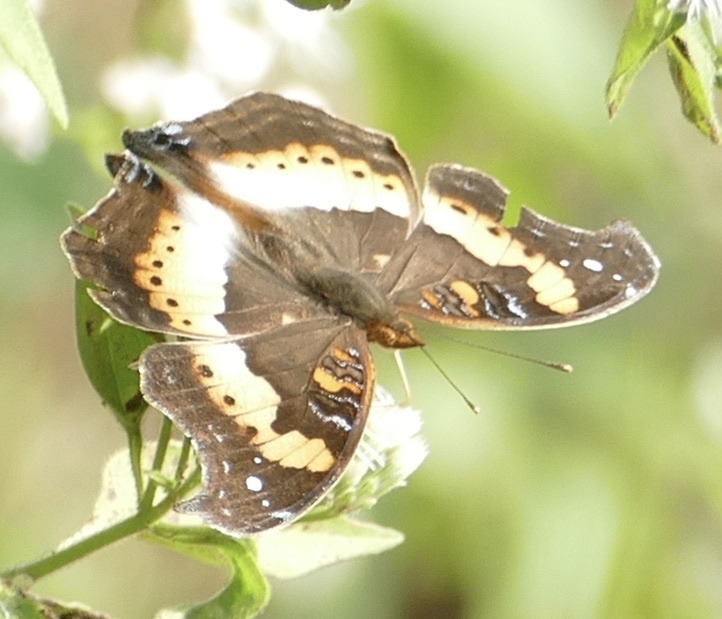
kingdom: Animalia
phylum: Arthropoda
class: Insecta
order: Lepidoptera
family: Nymphalidae
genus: Precis
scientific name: Precis pelarga
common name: Fashion commodore
